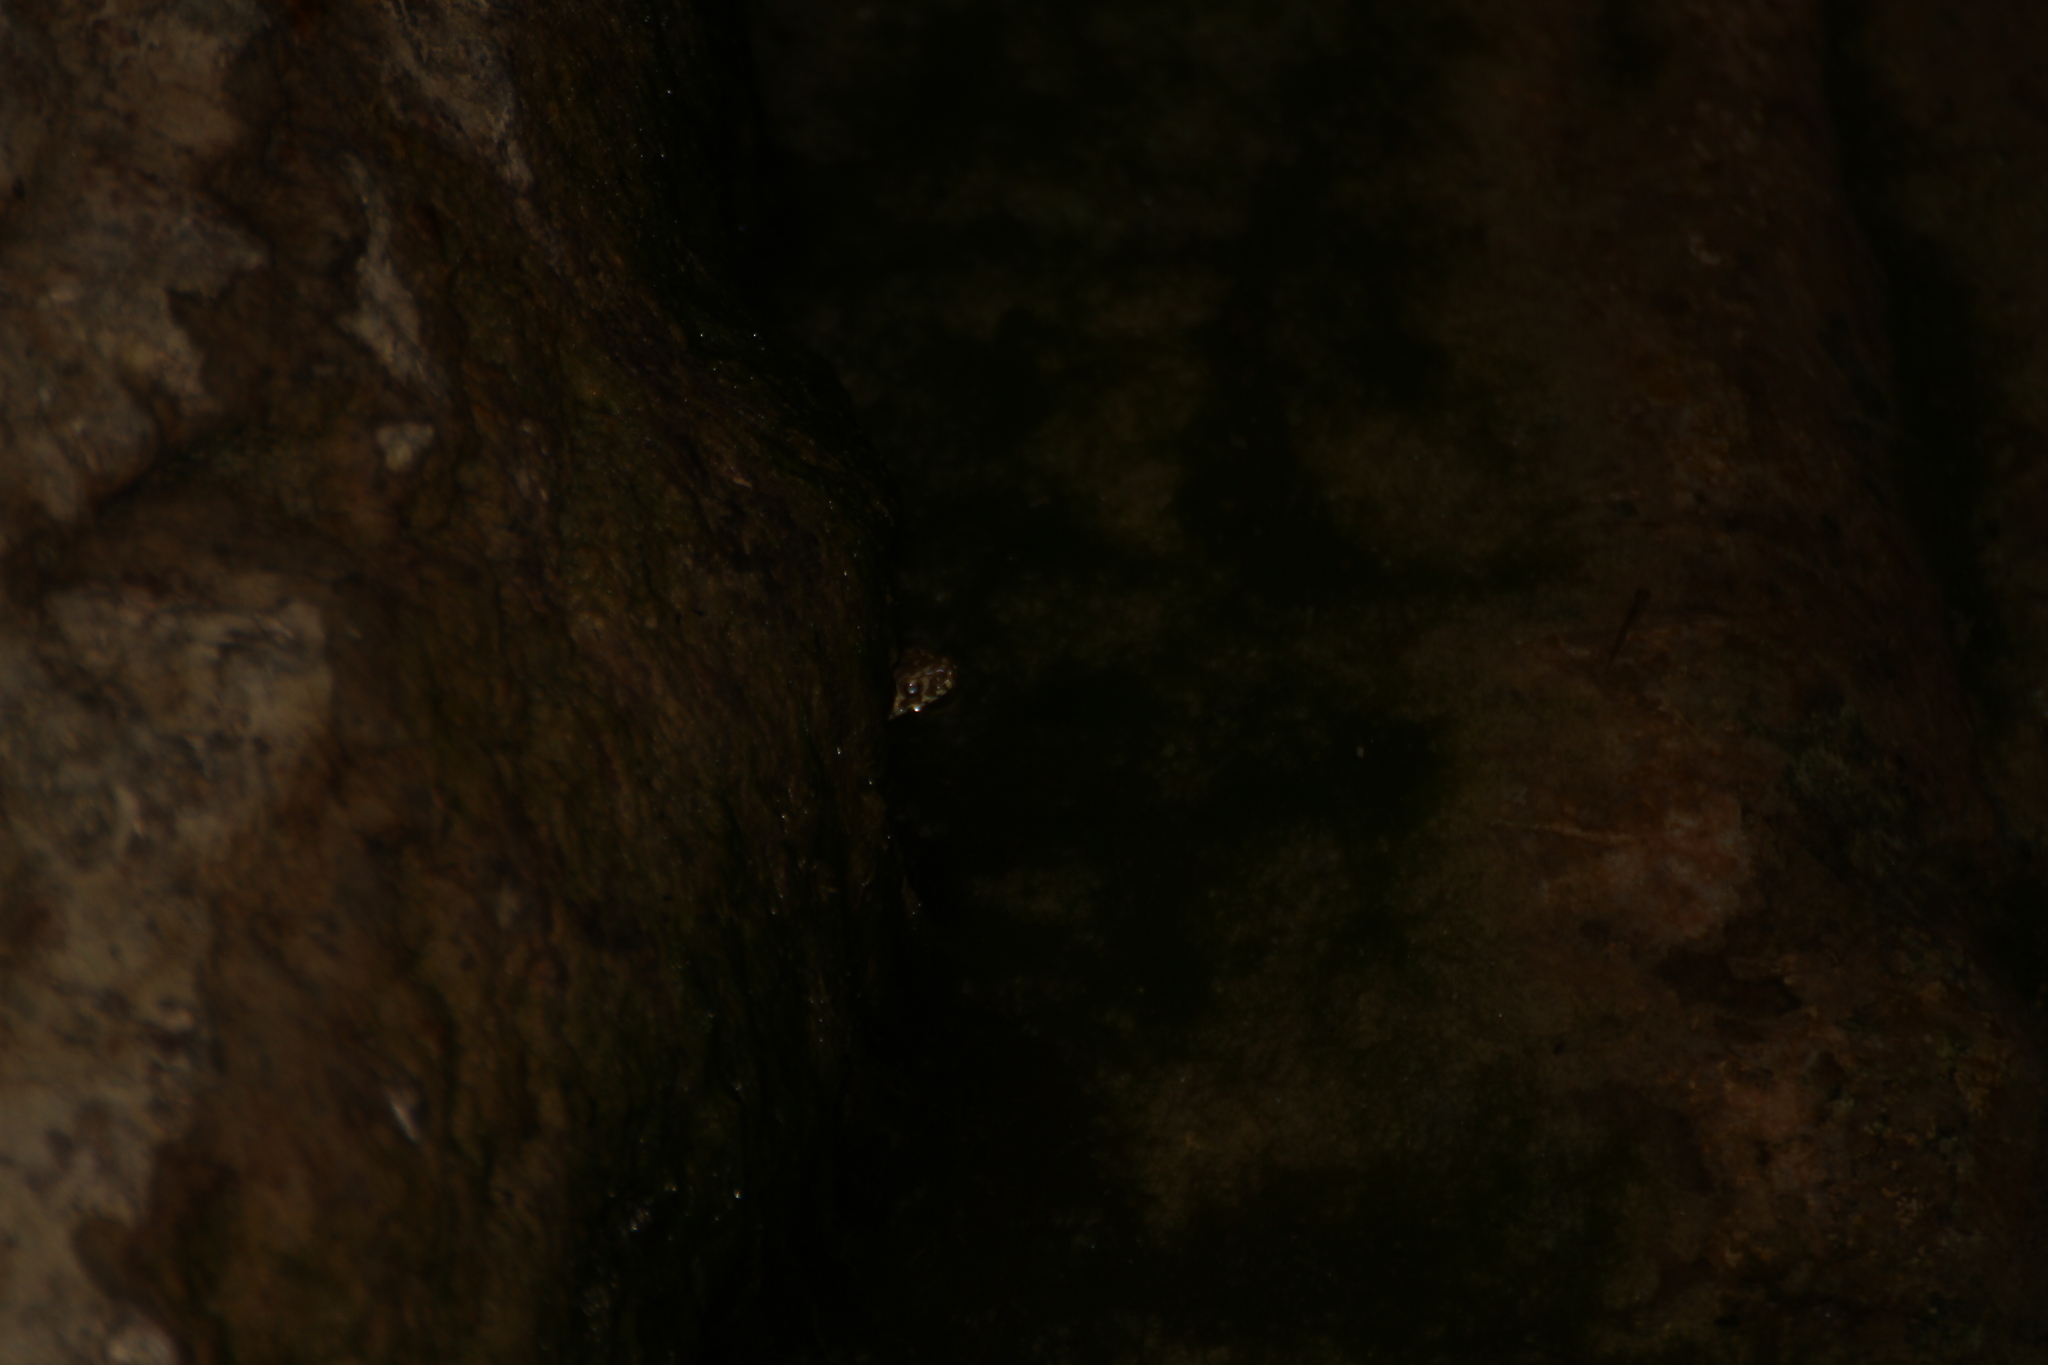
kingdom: Animalia
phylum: Chordata
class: Squamata
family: Colubridae
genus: Natrix
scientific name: Natrix maura
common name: Viperine water snake
